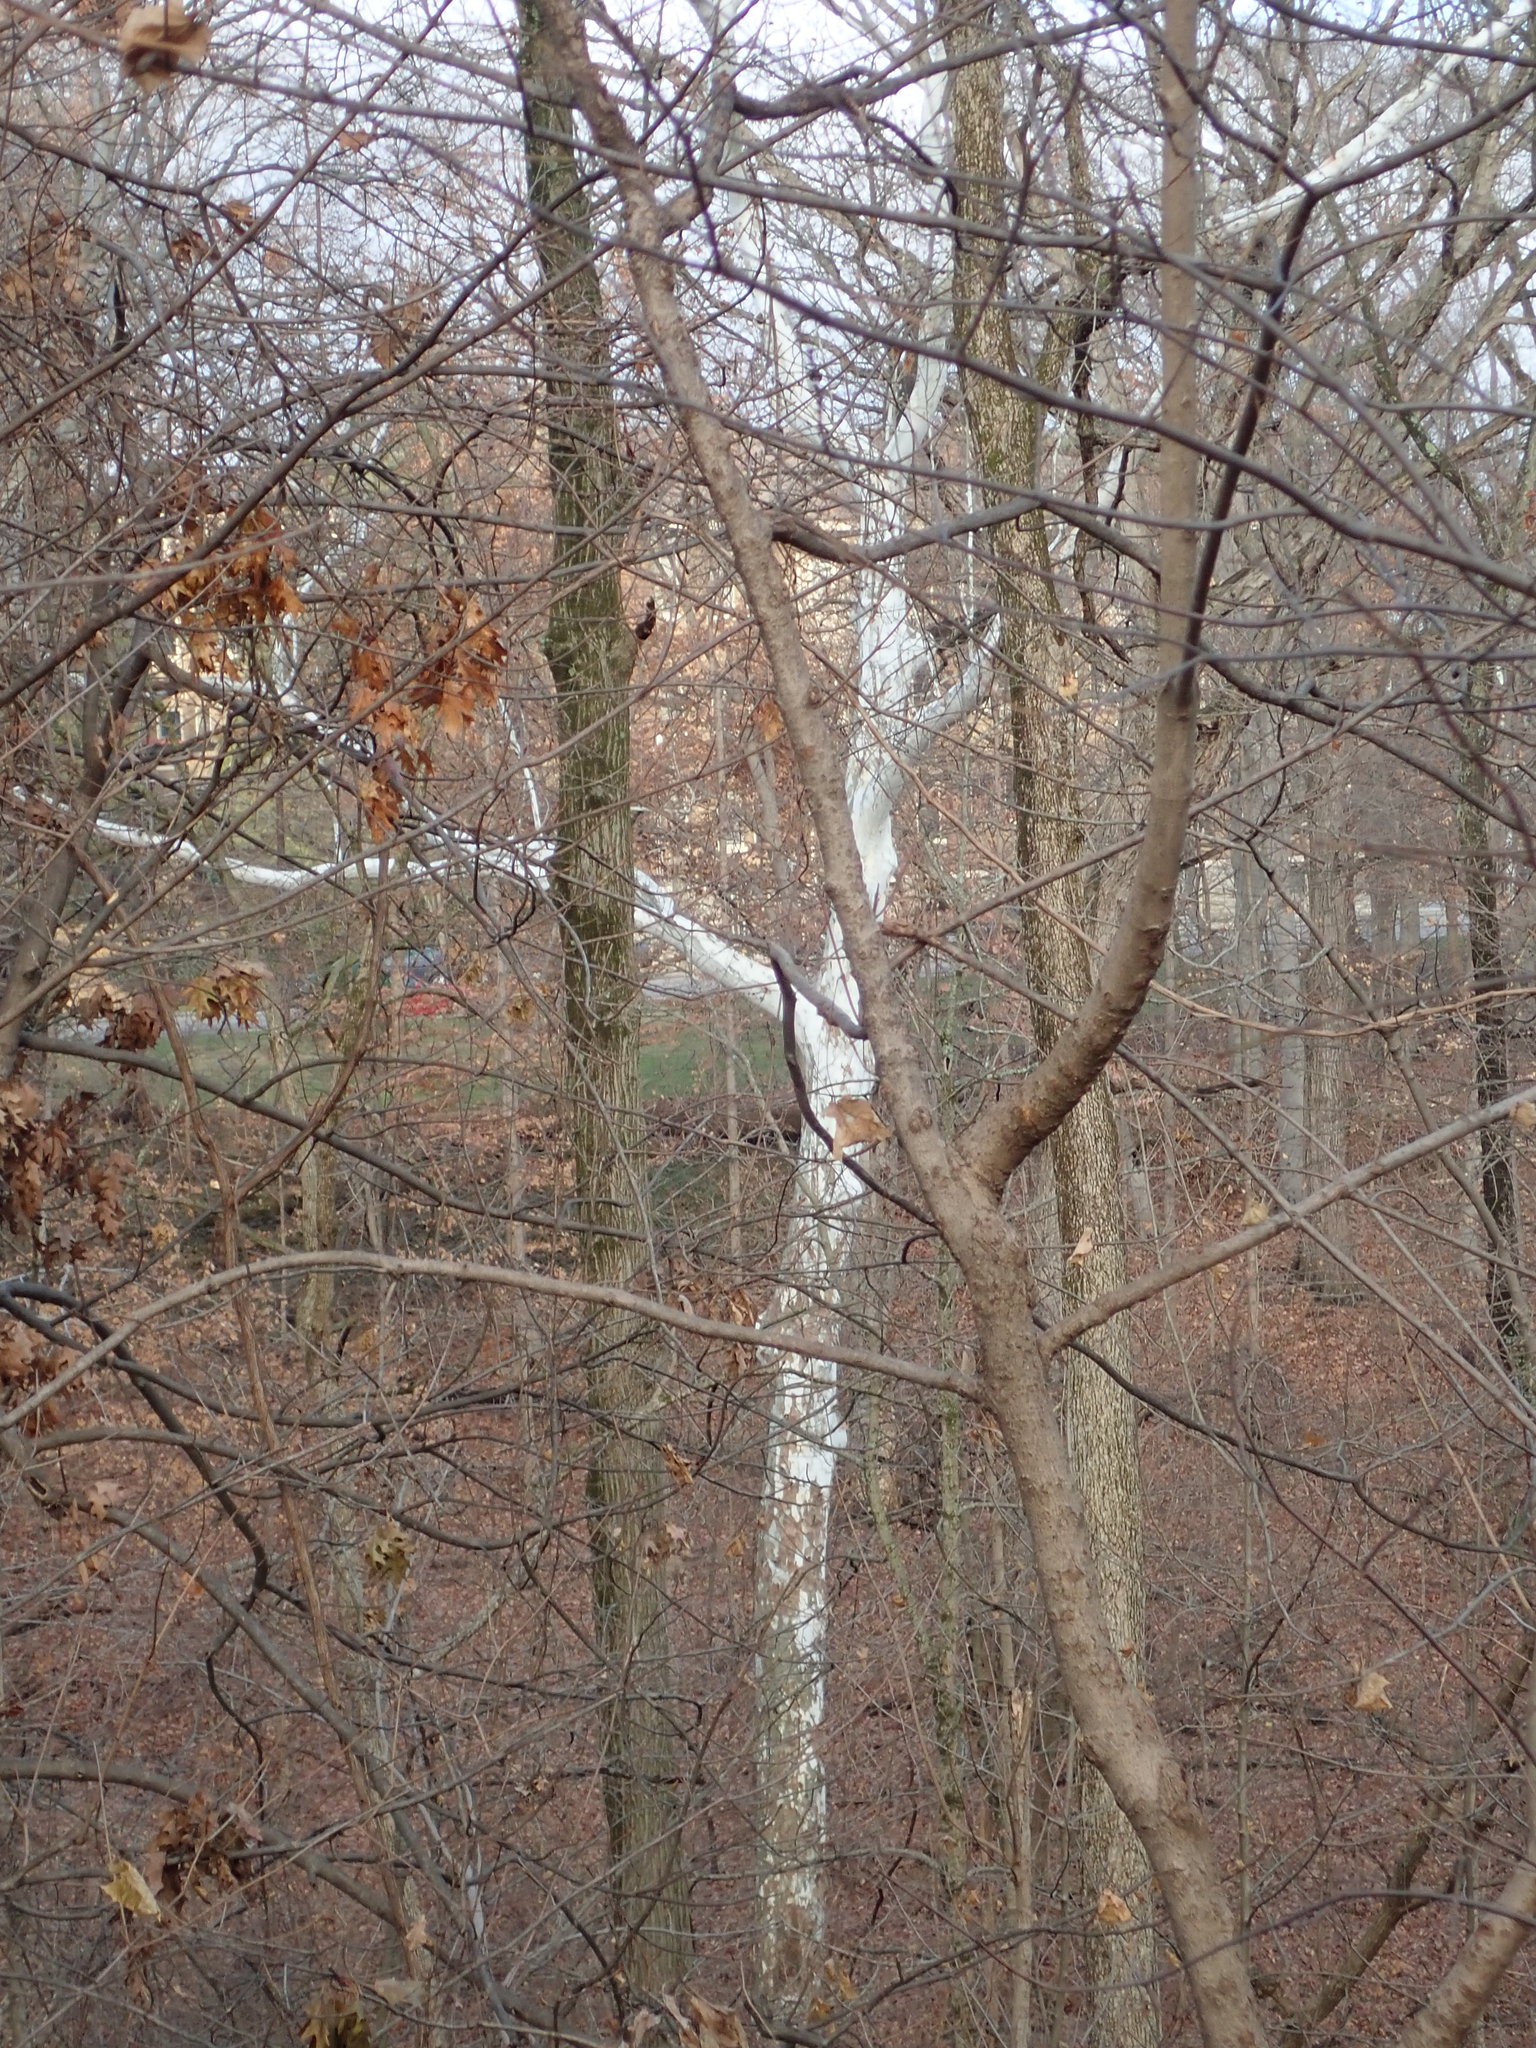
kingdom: Plantae
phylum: Tracheophyta
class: Magnoliopsida
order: Proteales
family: Platanaceae
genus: Platanus
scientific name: Platanus occidentalis
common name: American sycamore
